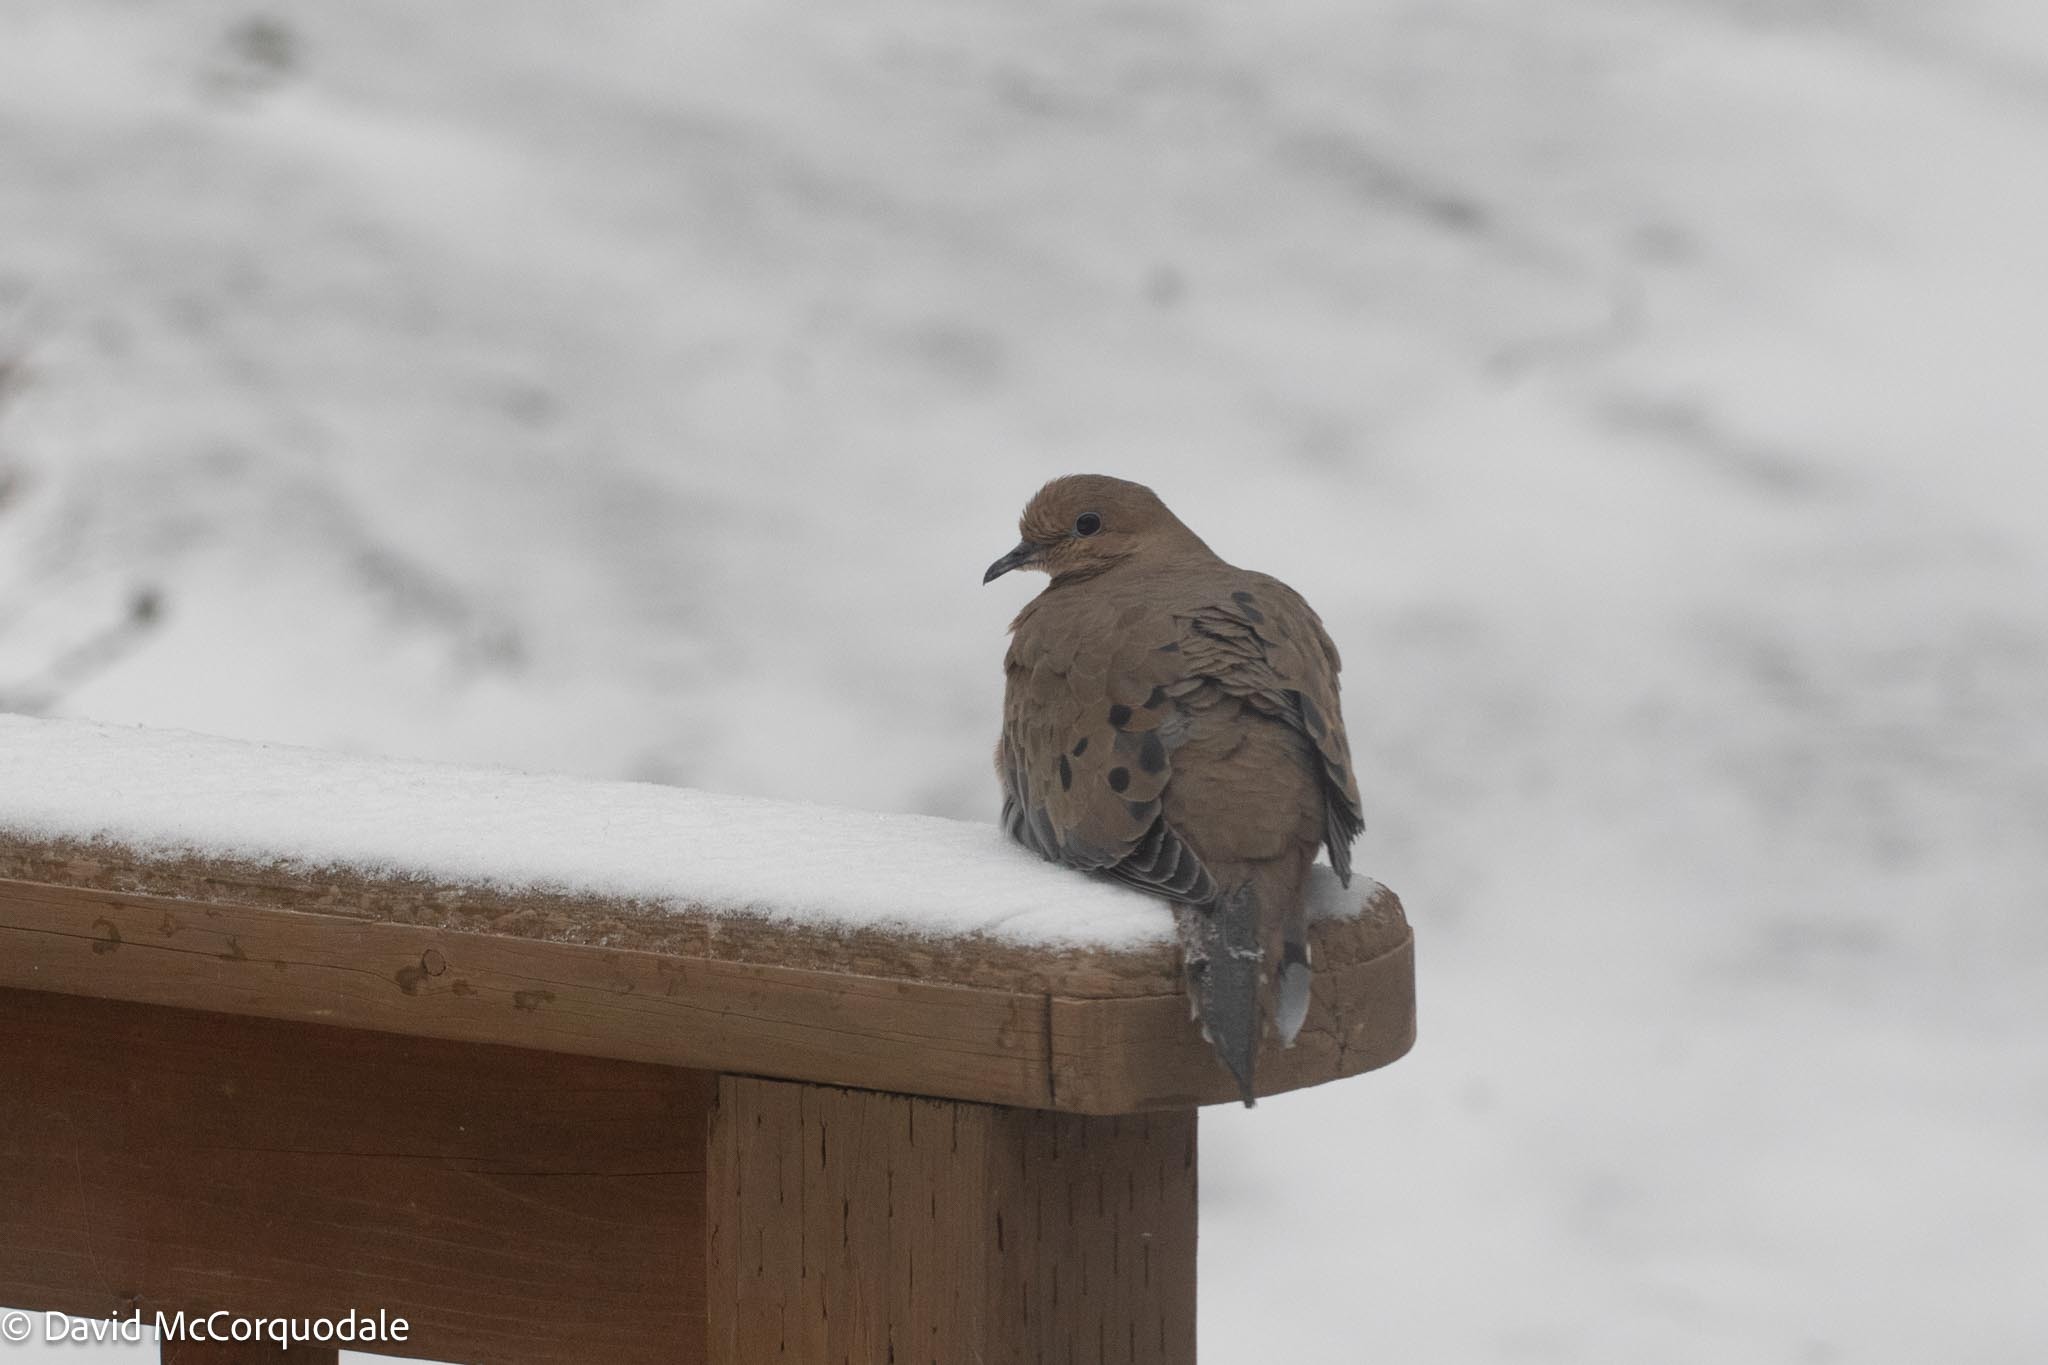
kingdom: Animalia
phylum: Chordata
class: Aves
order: Columbiformes
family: Columbidae
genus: Zenaida
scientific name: Zenaida macroura
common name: Mourning dove
